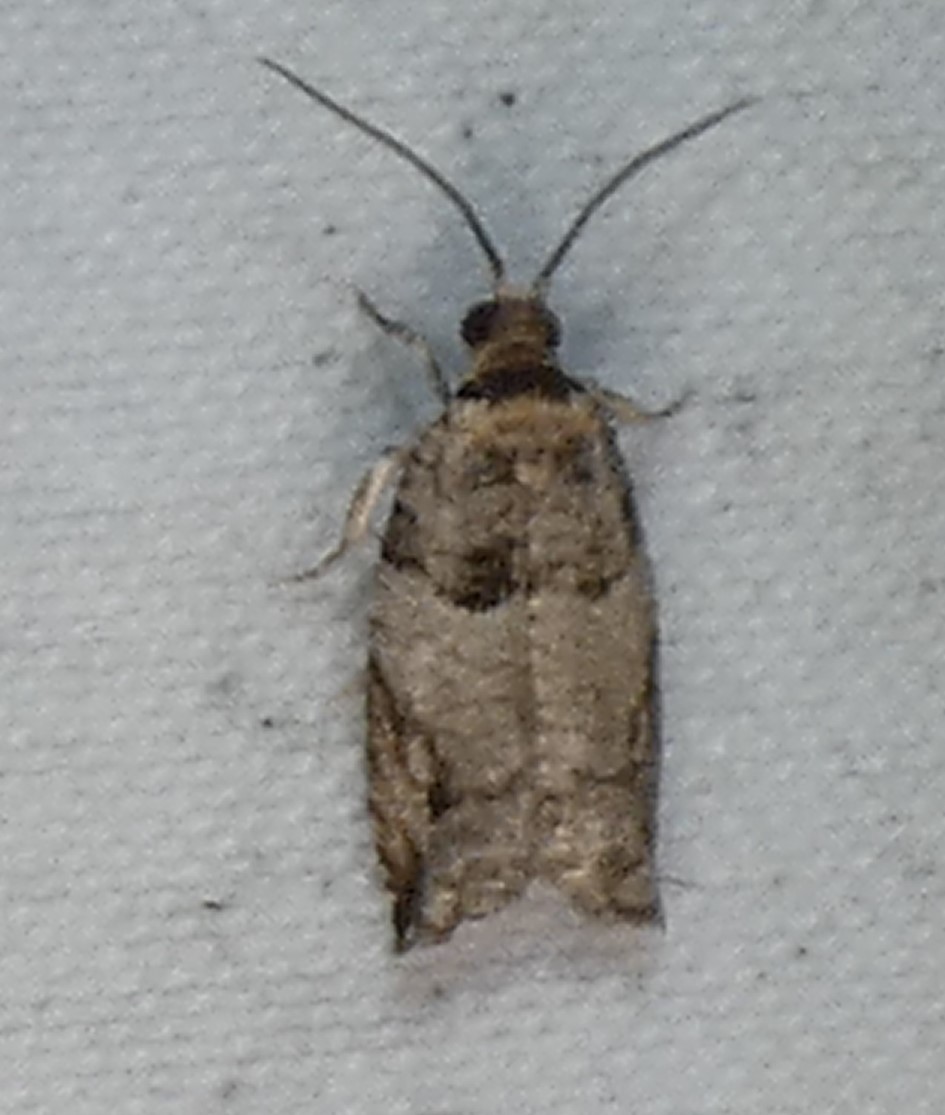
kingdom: Animalia
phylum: Arthropoda
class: Insecta
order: Lepidoptera
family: Tortricidae
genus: Rhopobota
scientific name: Rhopobota dietziana
